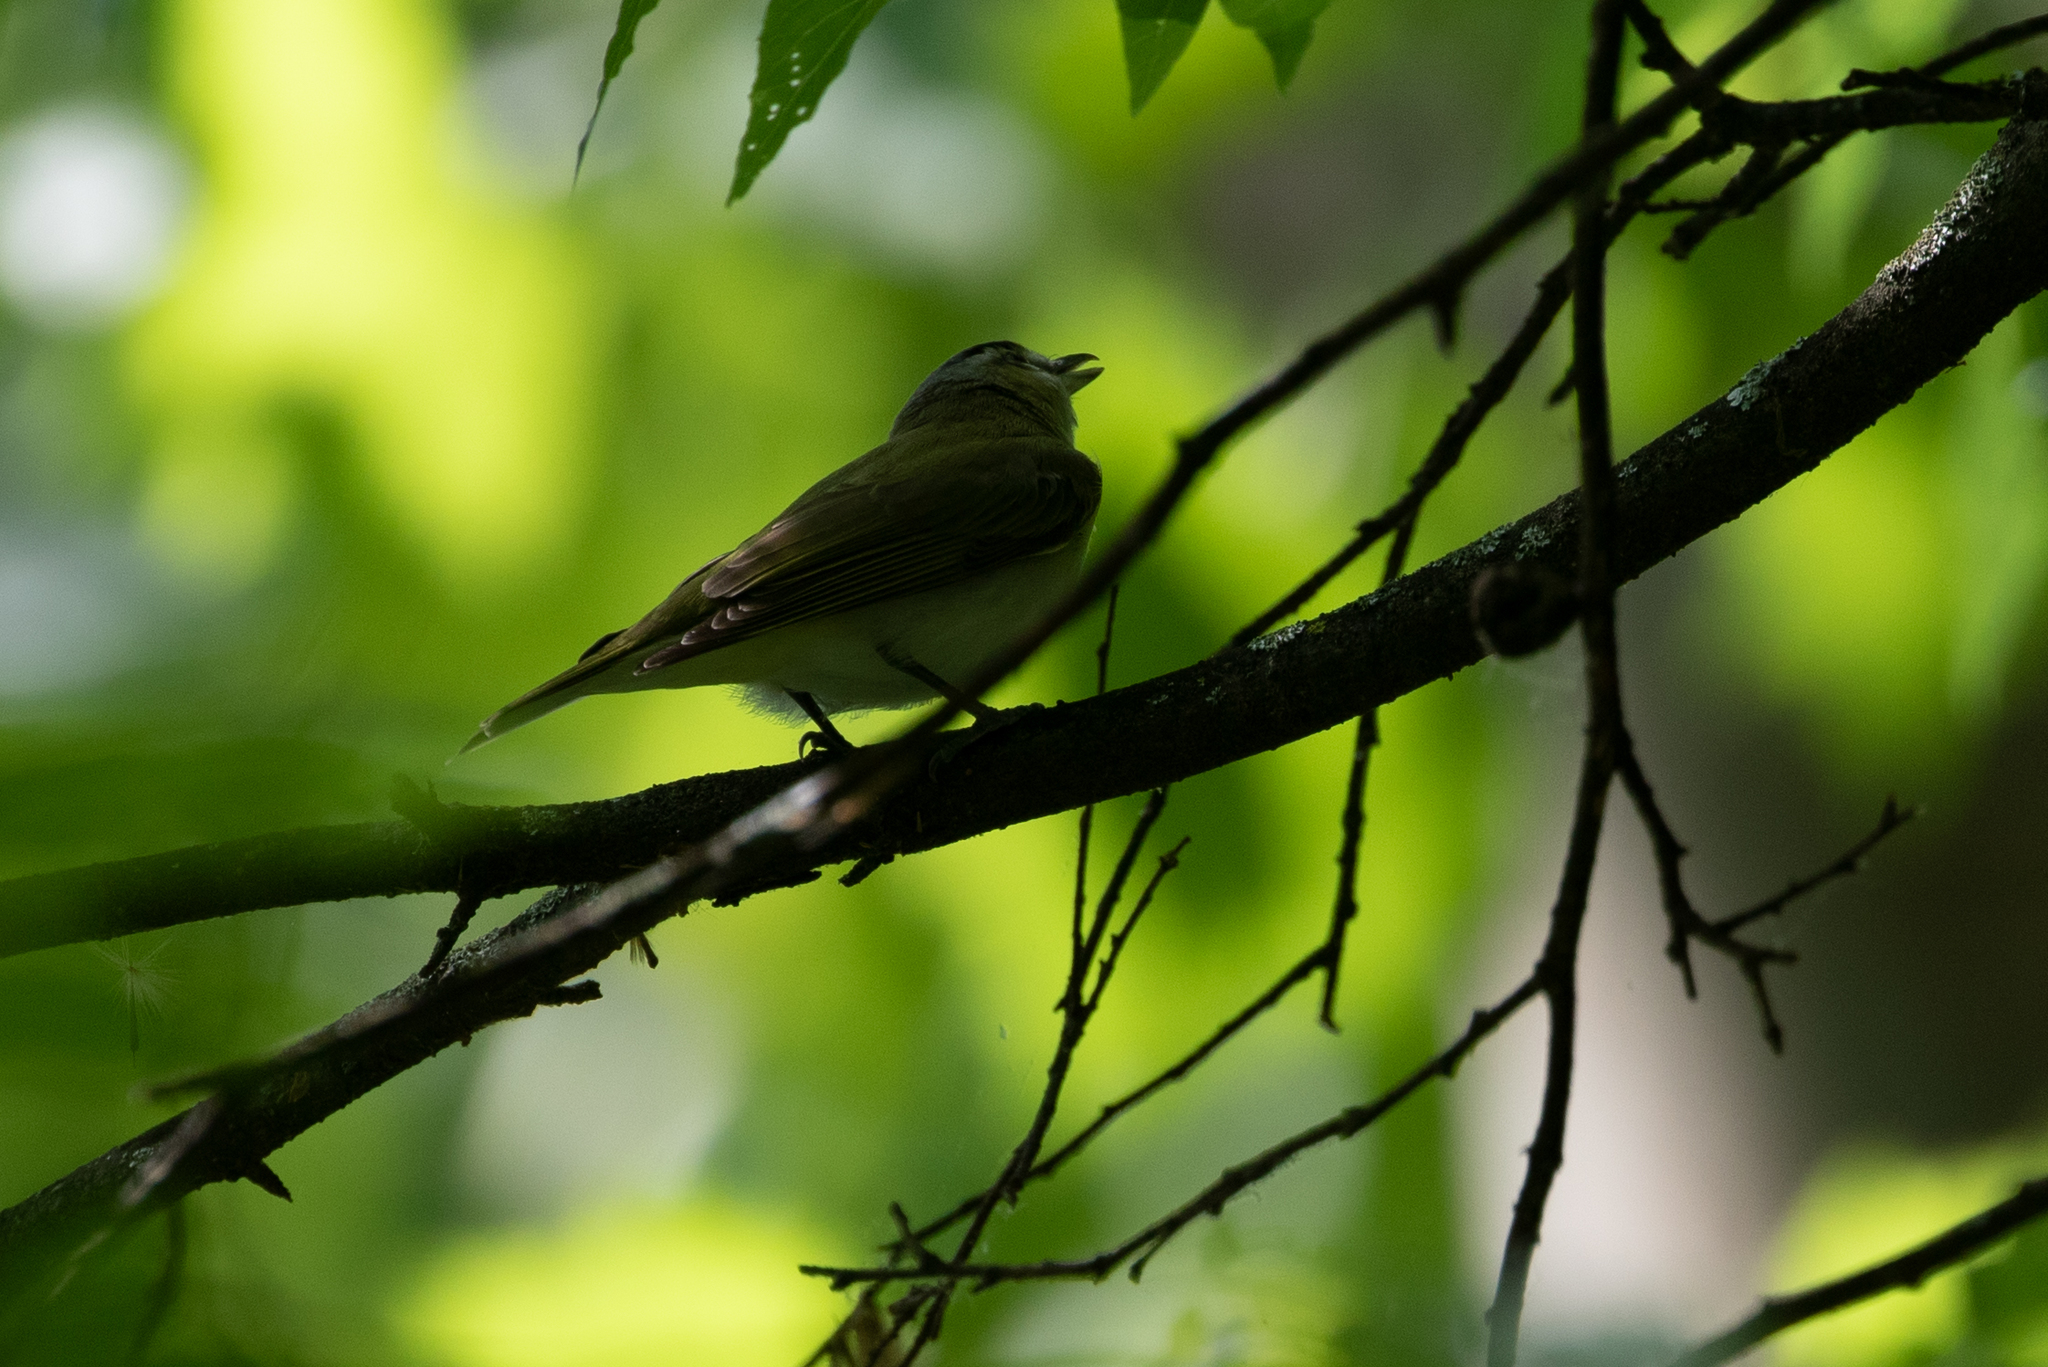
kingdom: Animalia
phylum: Chordata
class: Aves
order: Passeriformes
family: Vireonidae
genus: Vireo
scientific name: Vireo olivaceus
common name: Red-eyed vireo
